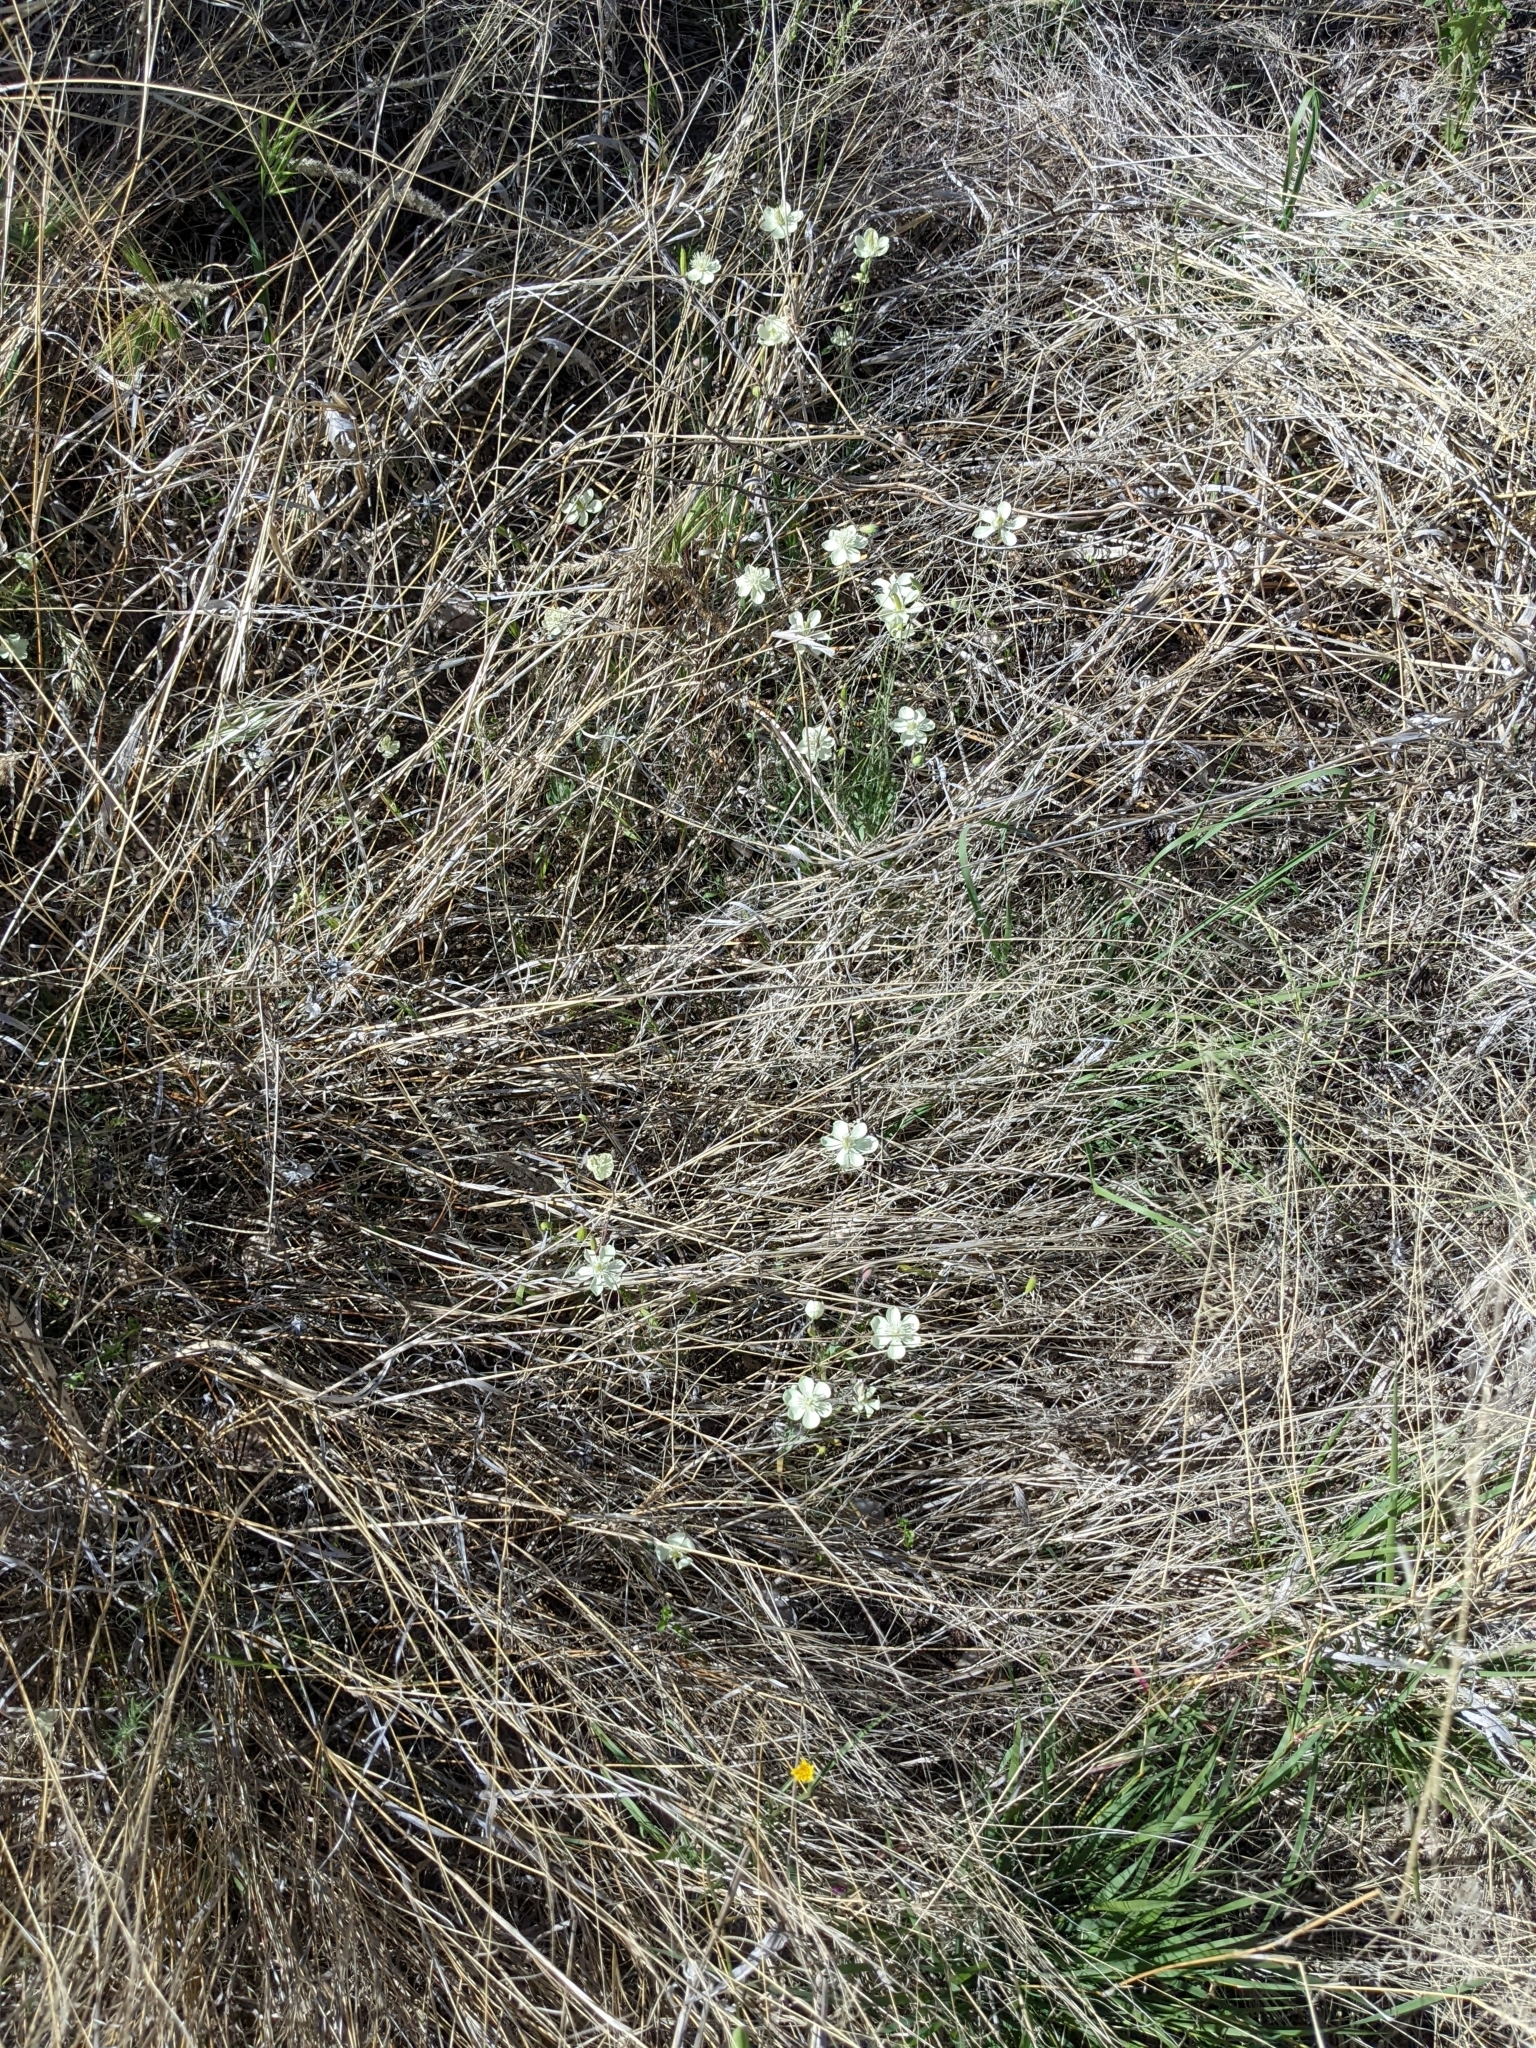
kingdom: Plantae
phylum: Tracheophyta
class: Magnoliopsida
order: Ranunculales
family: Papaveraceae
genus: Platystemon
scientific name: Platystemon californicus
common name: Cream-cups
